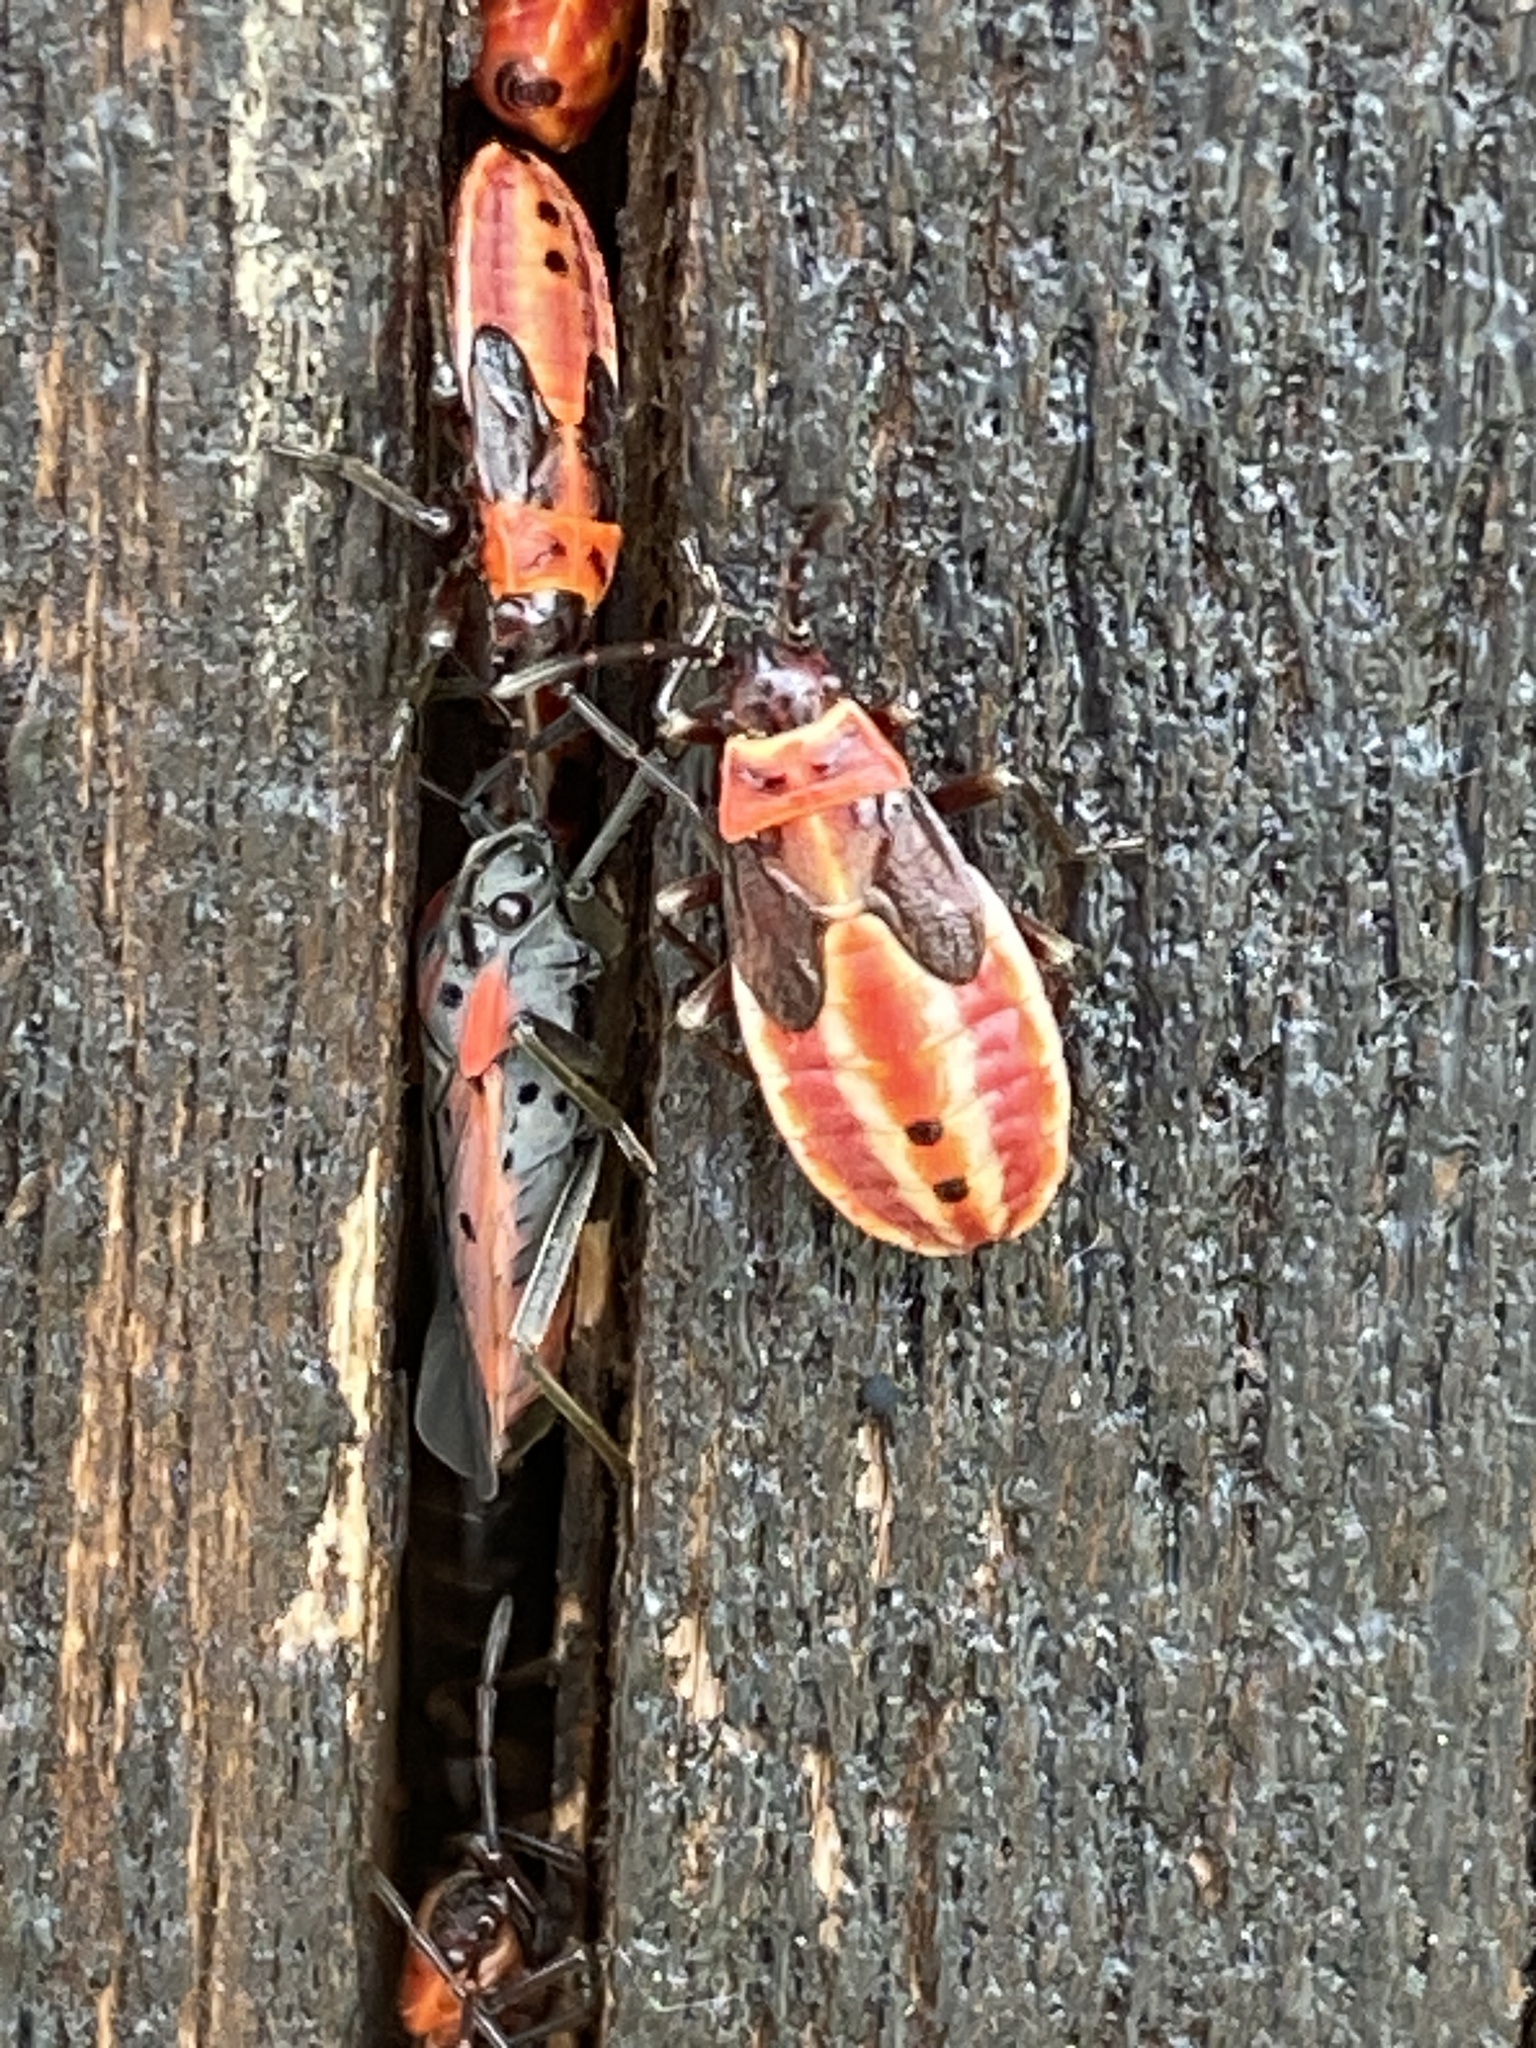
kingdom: Animalia
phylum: Arthropoda
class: Insecta
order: Hemiptera
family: Lygaeidae
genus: Lygaeus
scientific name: Lygaeus creticus
